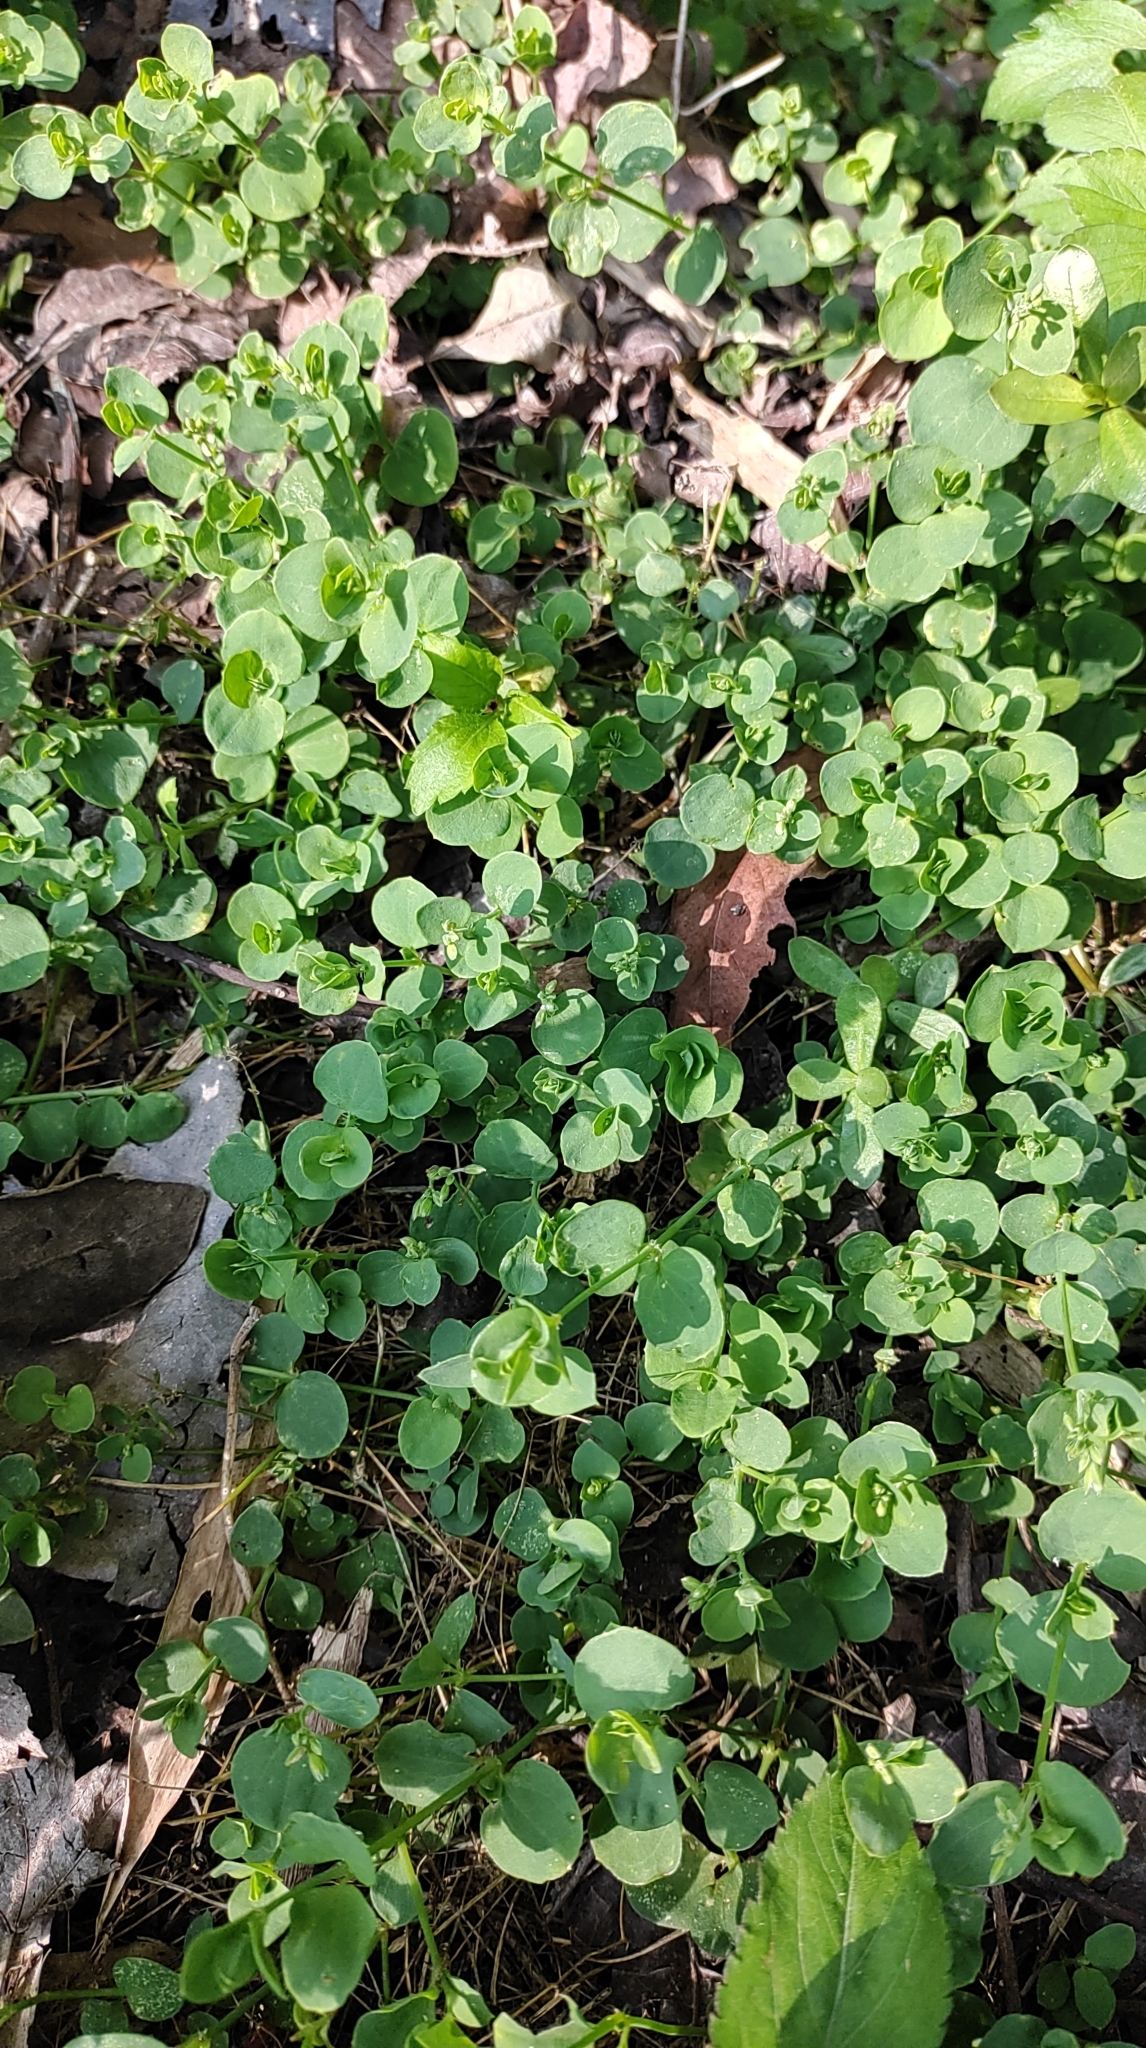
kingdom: Plantae
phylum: Tracheophyta
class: Magnoliopsida
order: Caryophyllales
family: Caryophyllaceae
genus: Drymaria
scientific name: Drymaria cordata
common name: Whitesnow
